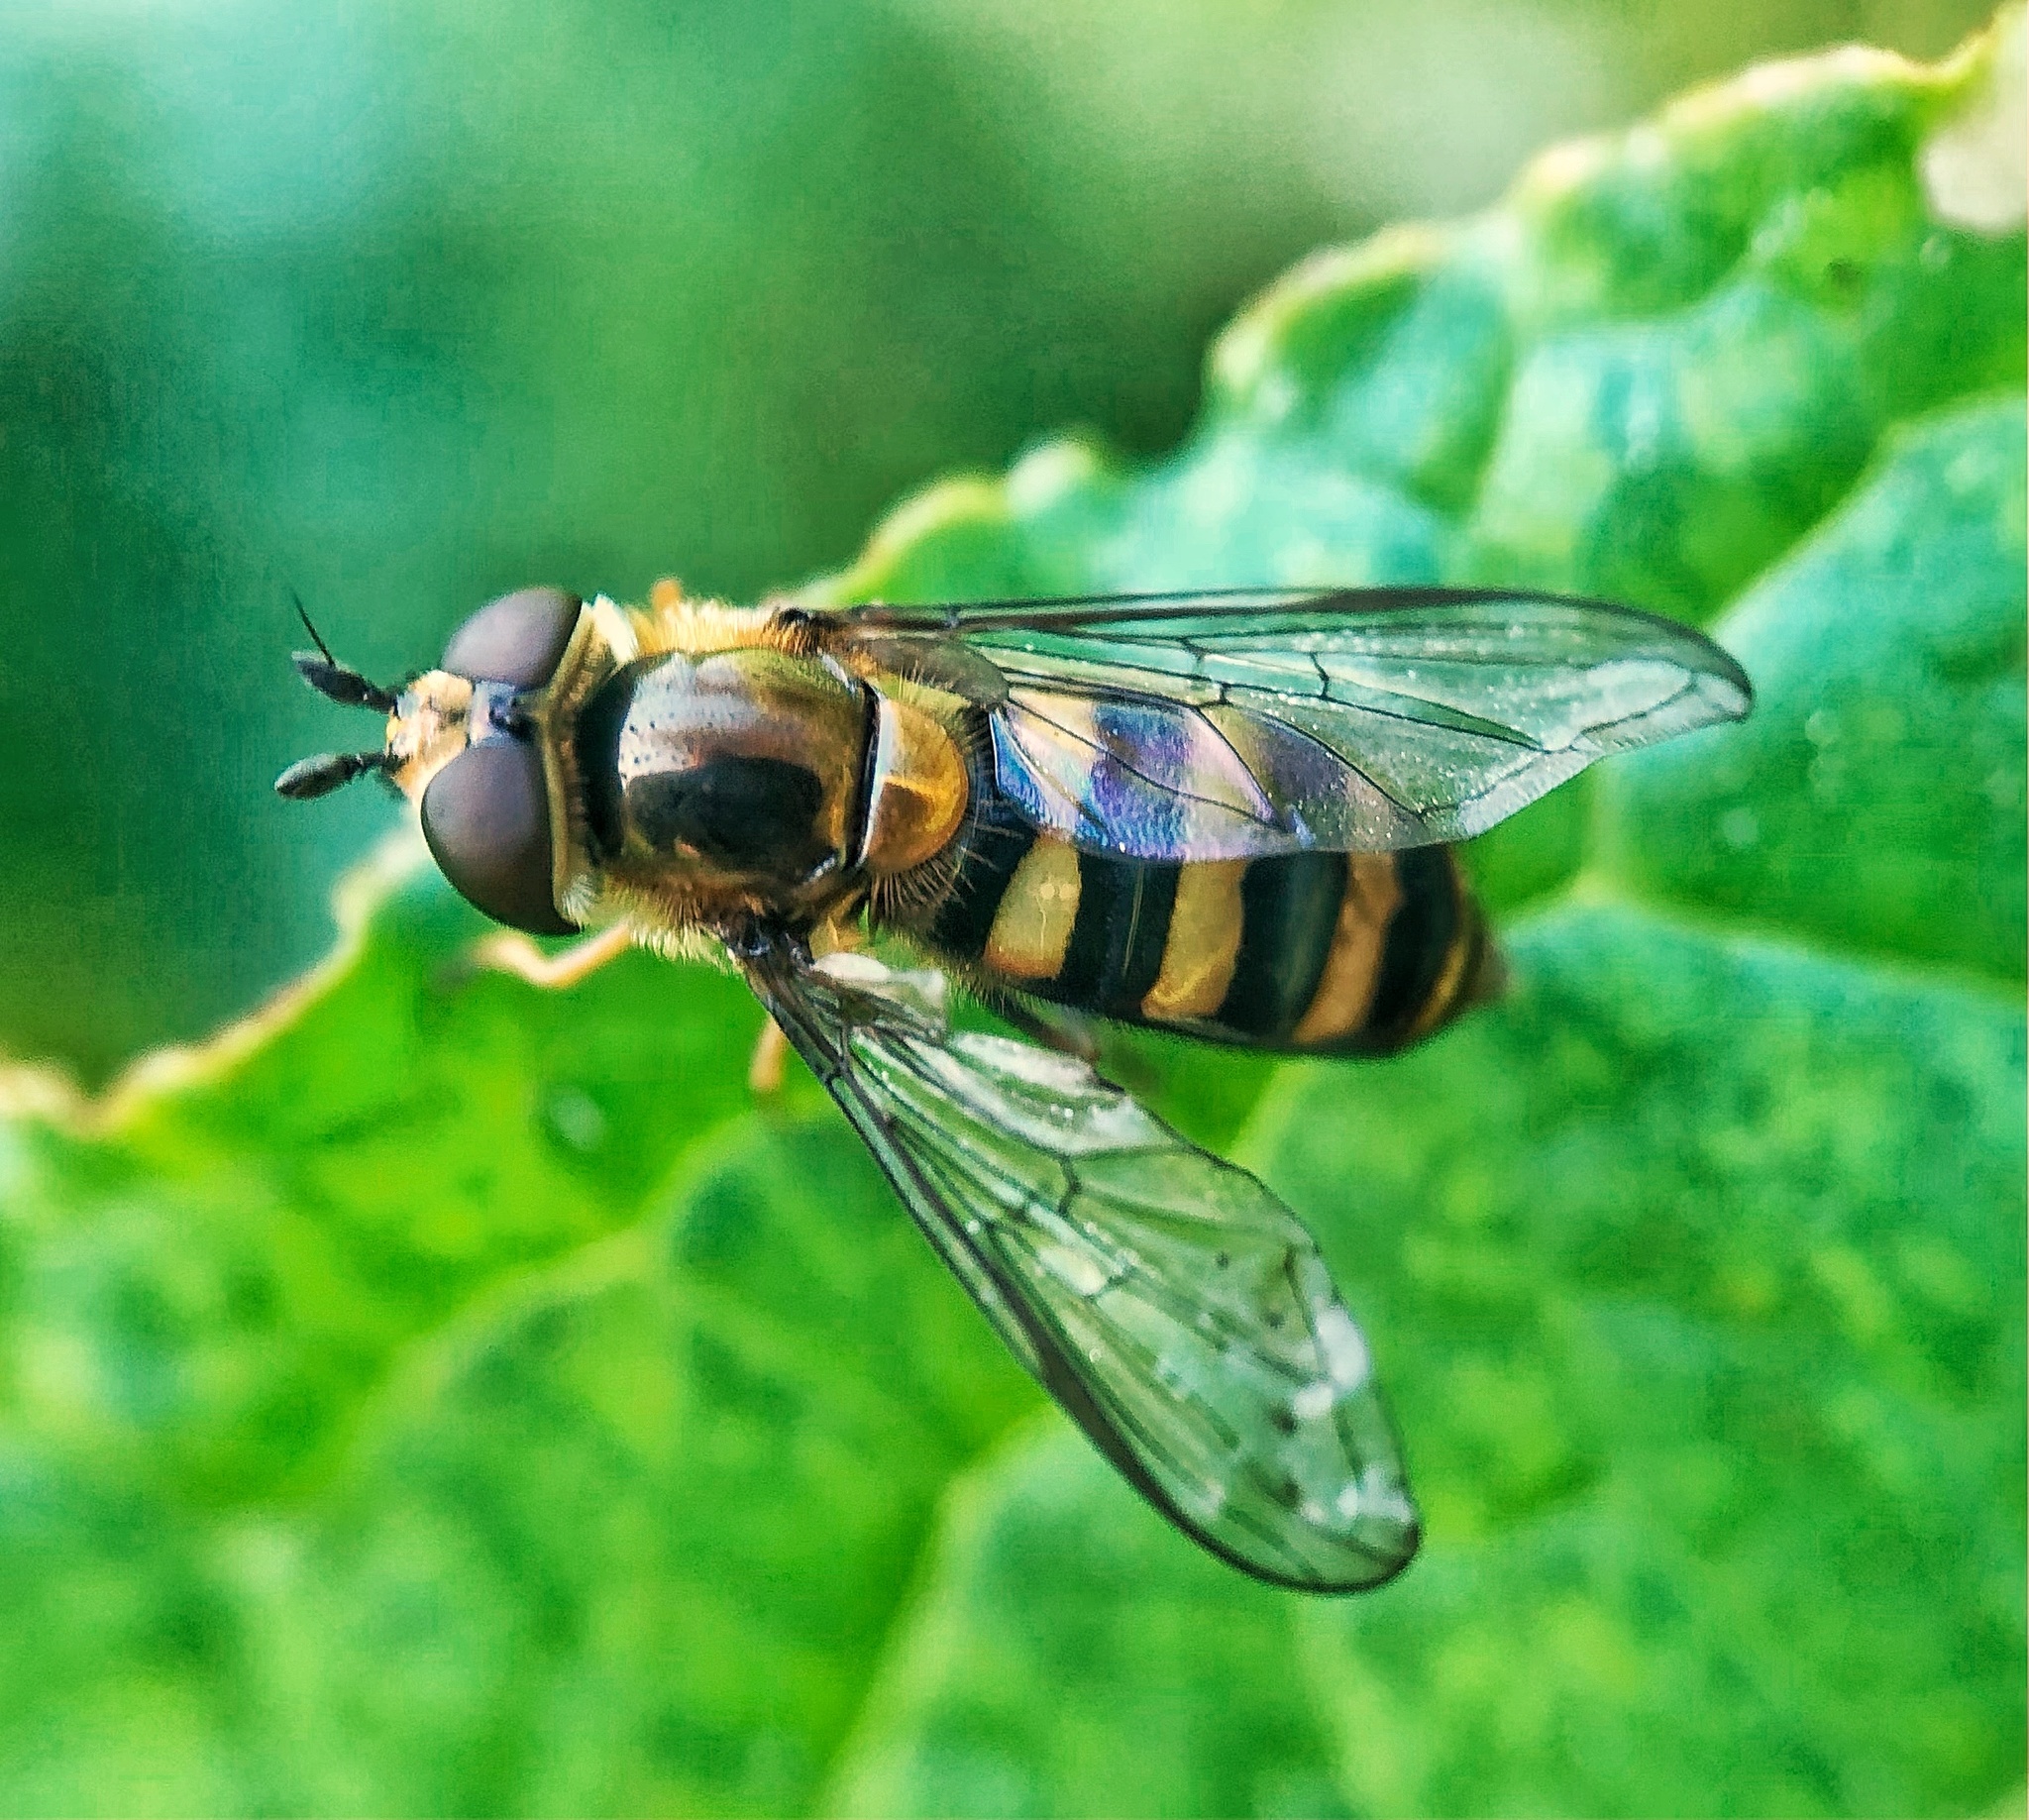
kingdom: Animalia
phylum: Arthropoda
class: Insecta
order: Diptera
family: Syrphidae
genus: Eupeodes
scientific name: Eupeodes
